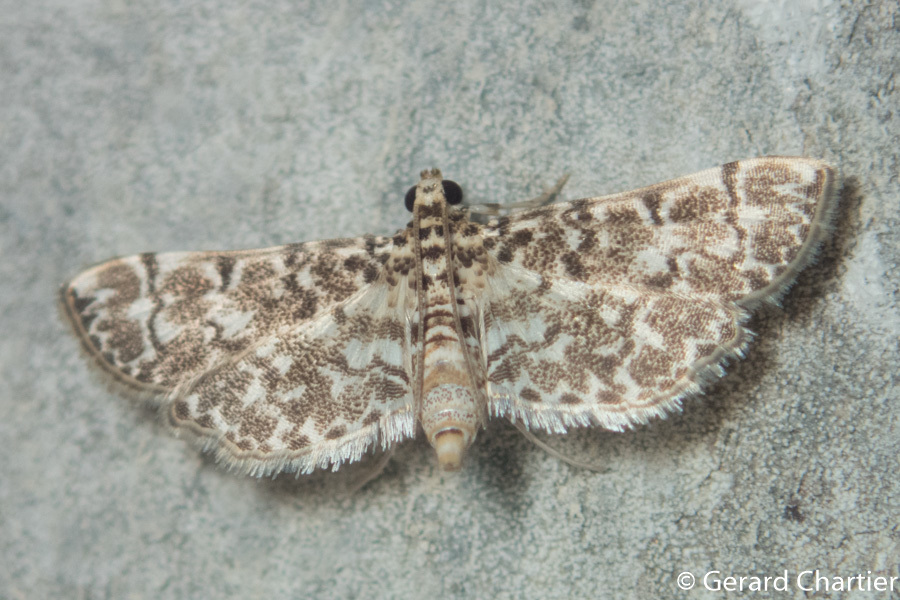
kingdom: Animalia
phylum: Arthropoda
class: Insecta
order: Lepidoptera
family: Crambidae
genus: Metoeca
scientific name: Metoeca foedalis
